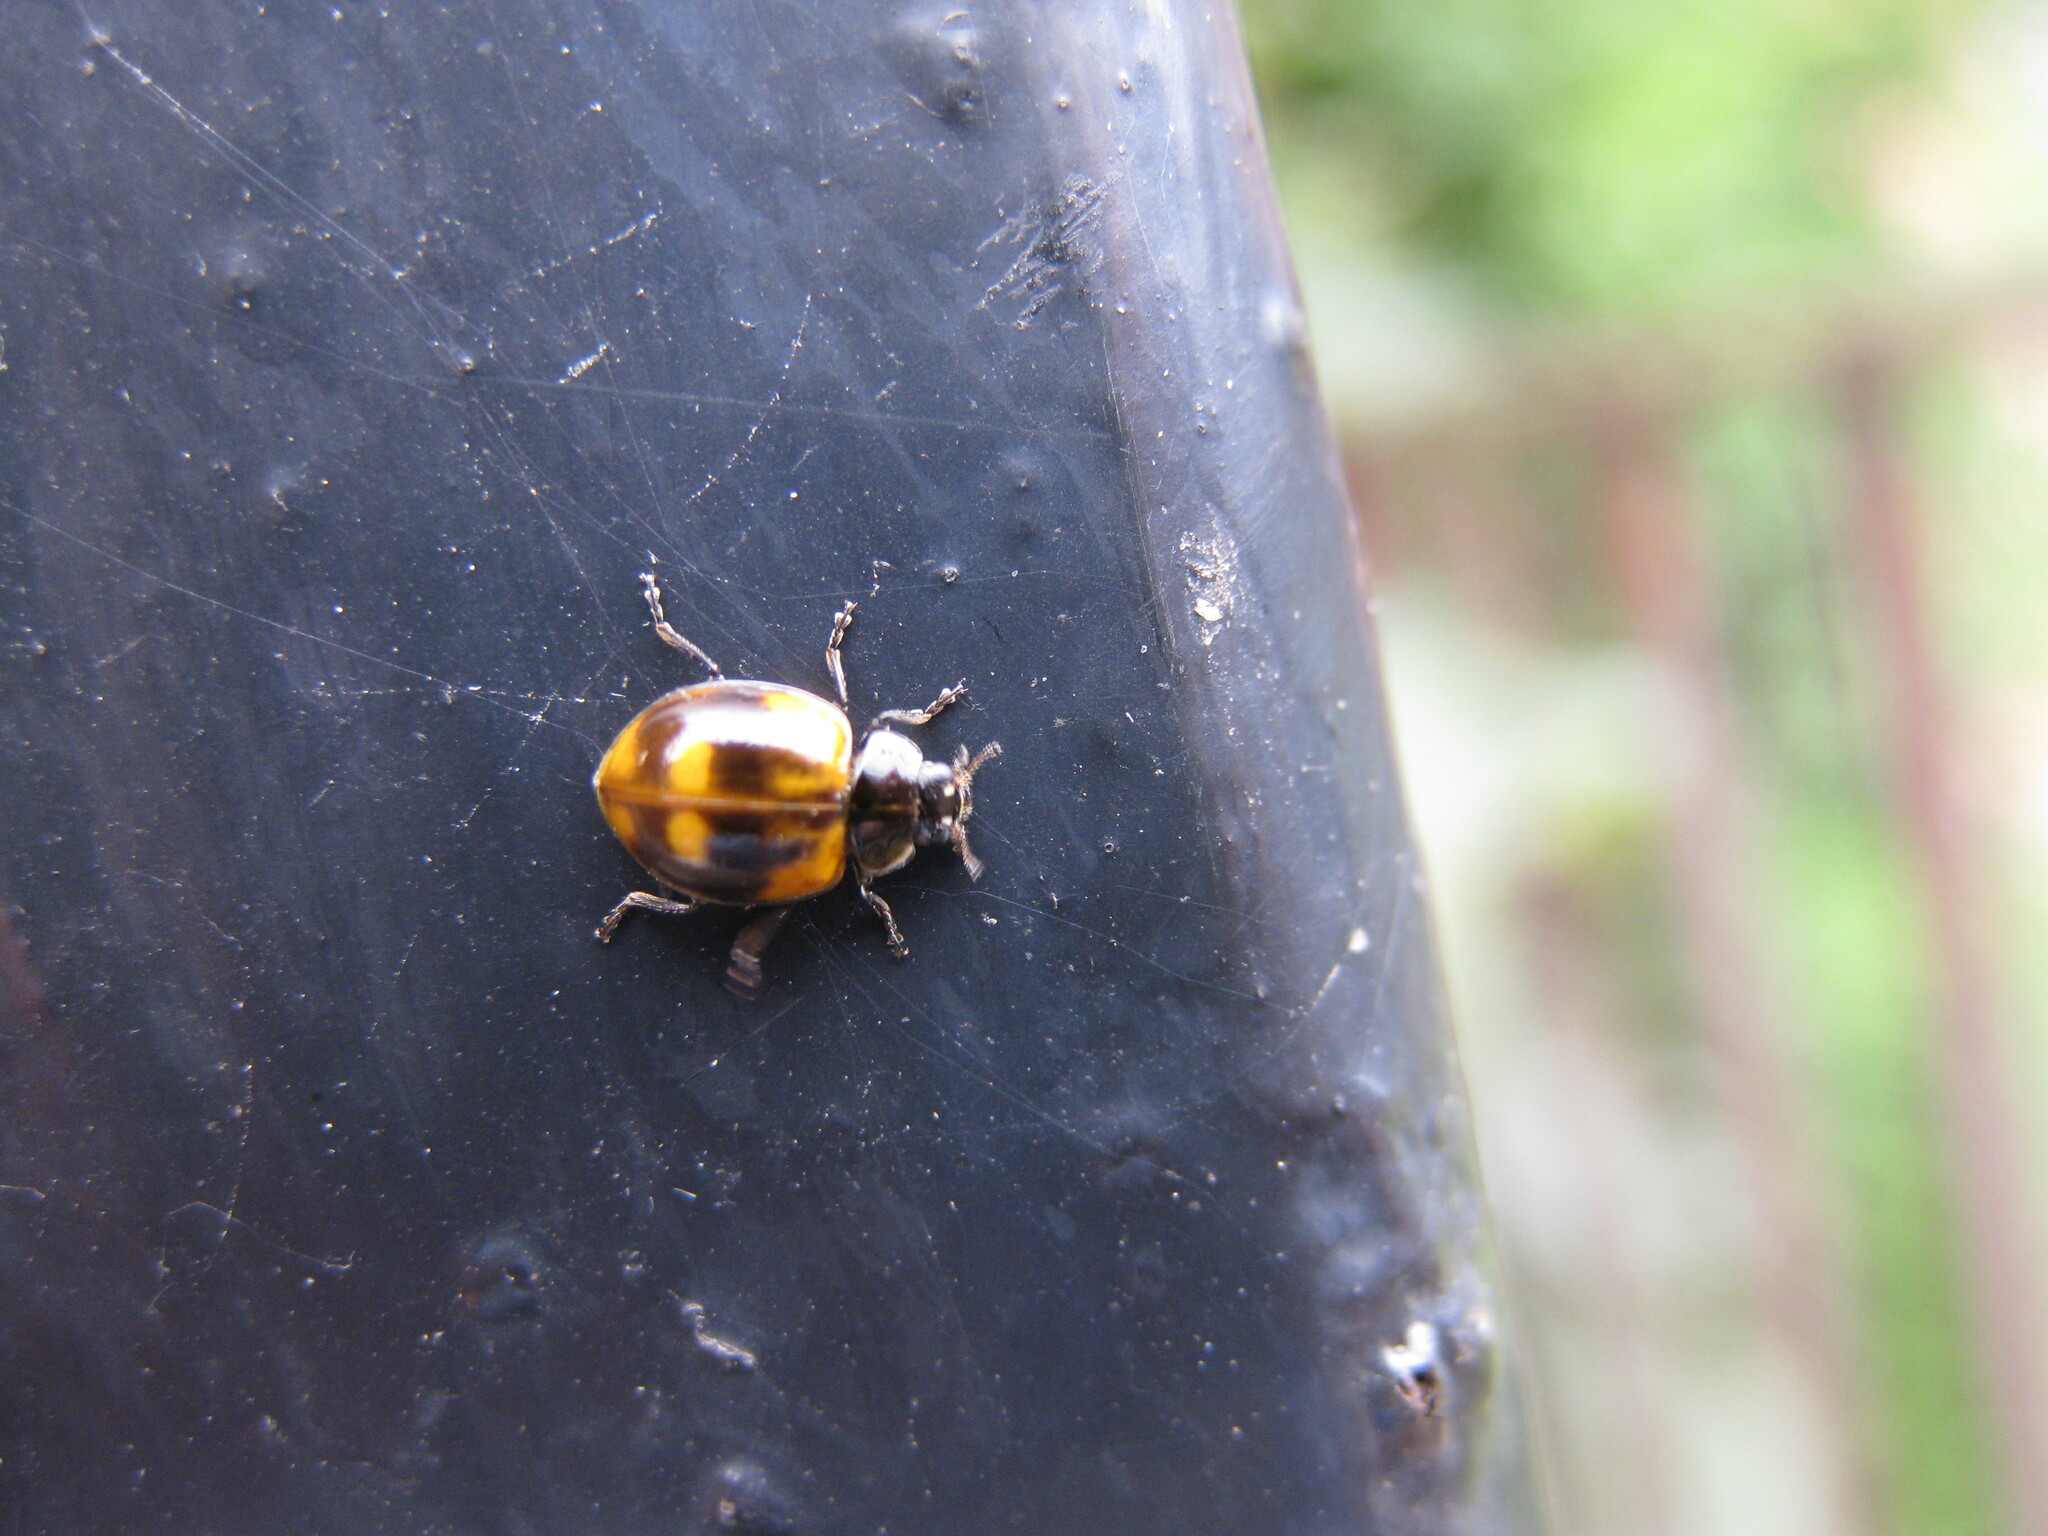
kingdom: Animalia
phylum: Arthropoda
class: Insecta
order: Coleoptera
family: Coccinellidae
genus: Adalia
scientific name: Adalia bipunctata
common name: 2-spot ladybird
